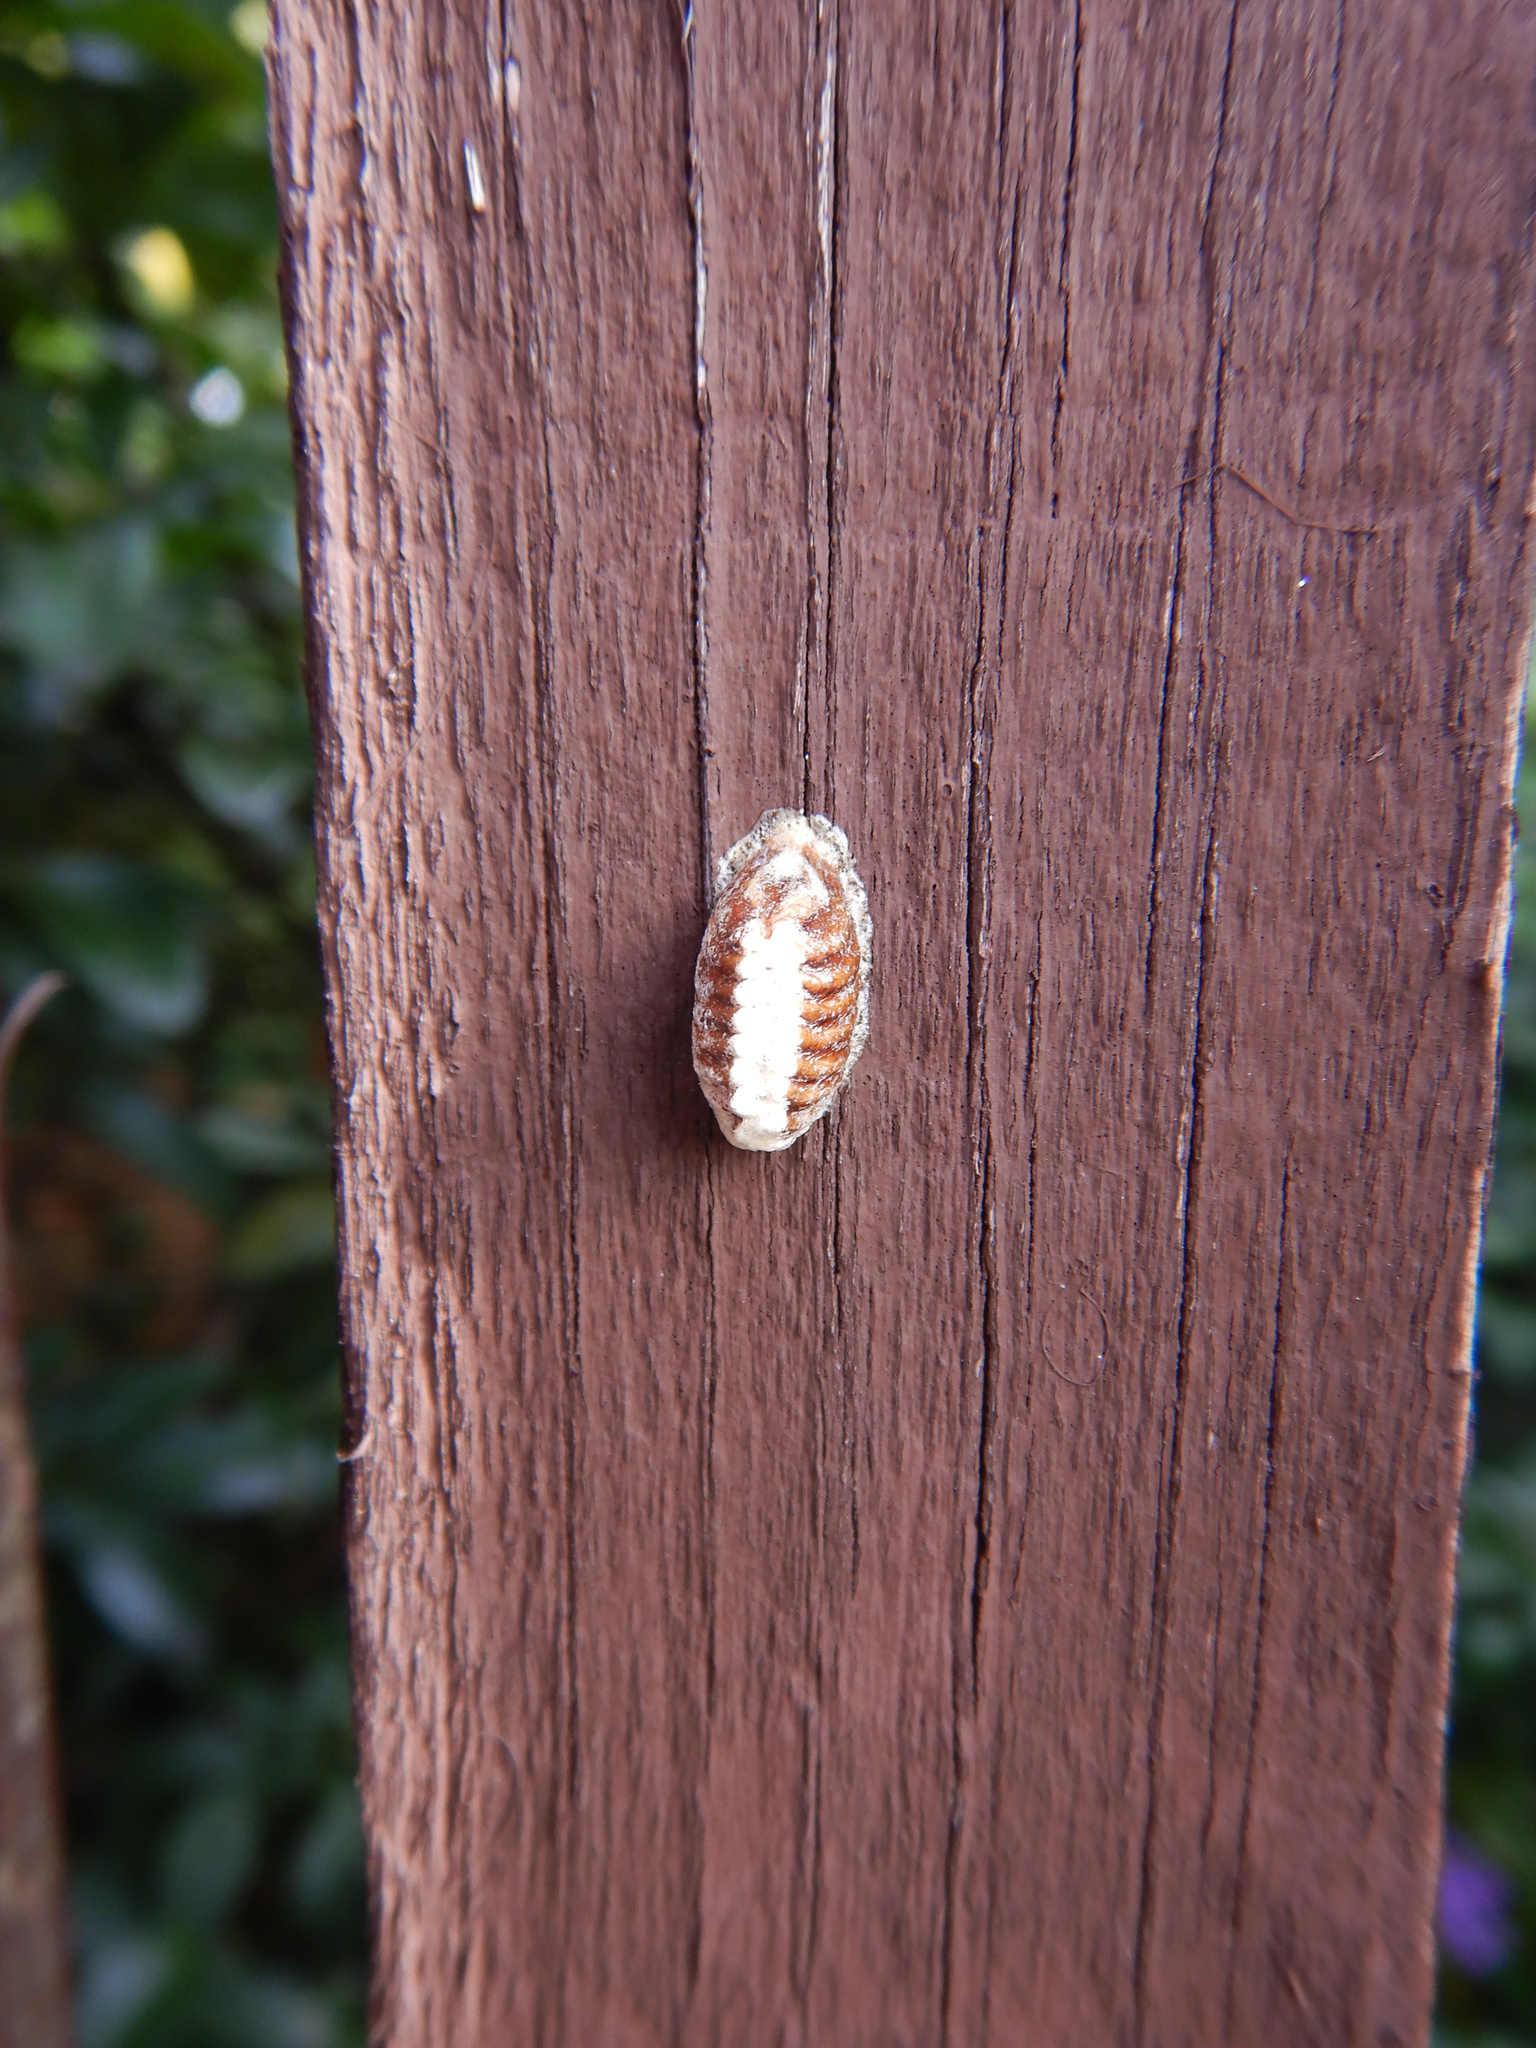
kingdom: Animalia
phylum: Arthropoda
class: Insecta
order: Mantodea
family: Mantidae
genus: Orthodera
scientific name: Orthodera novaezealandiae
